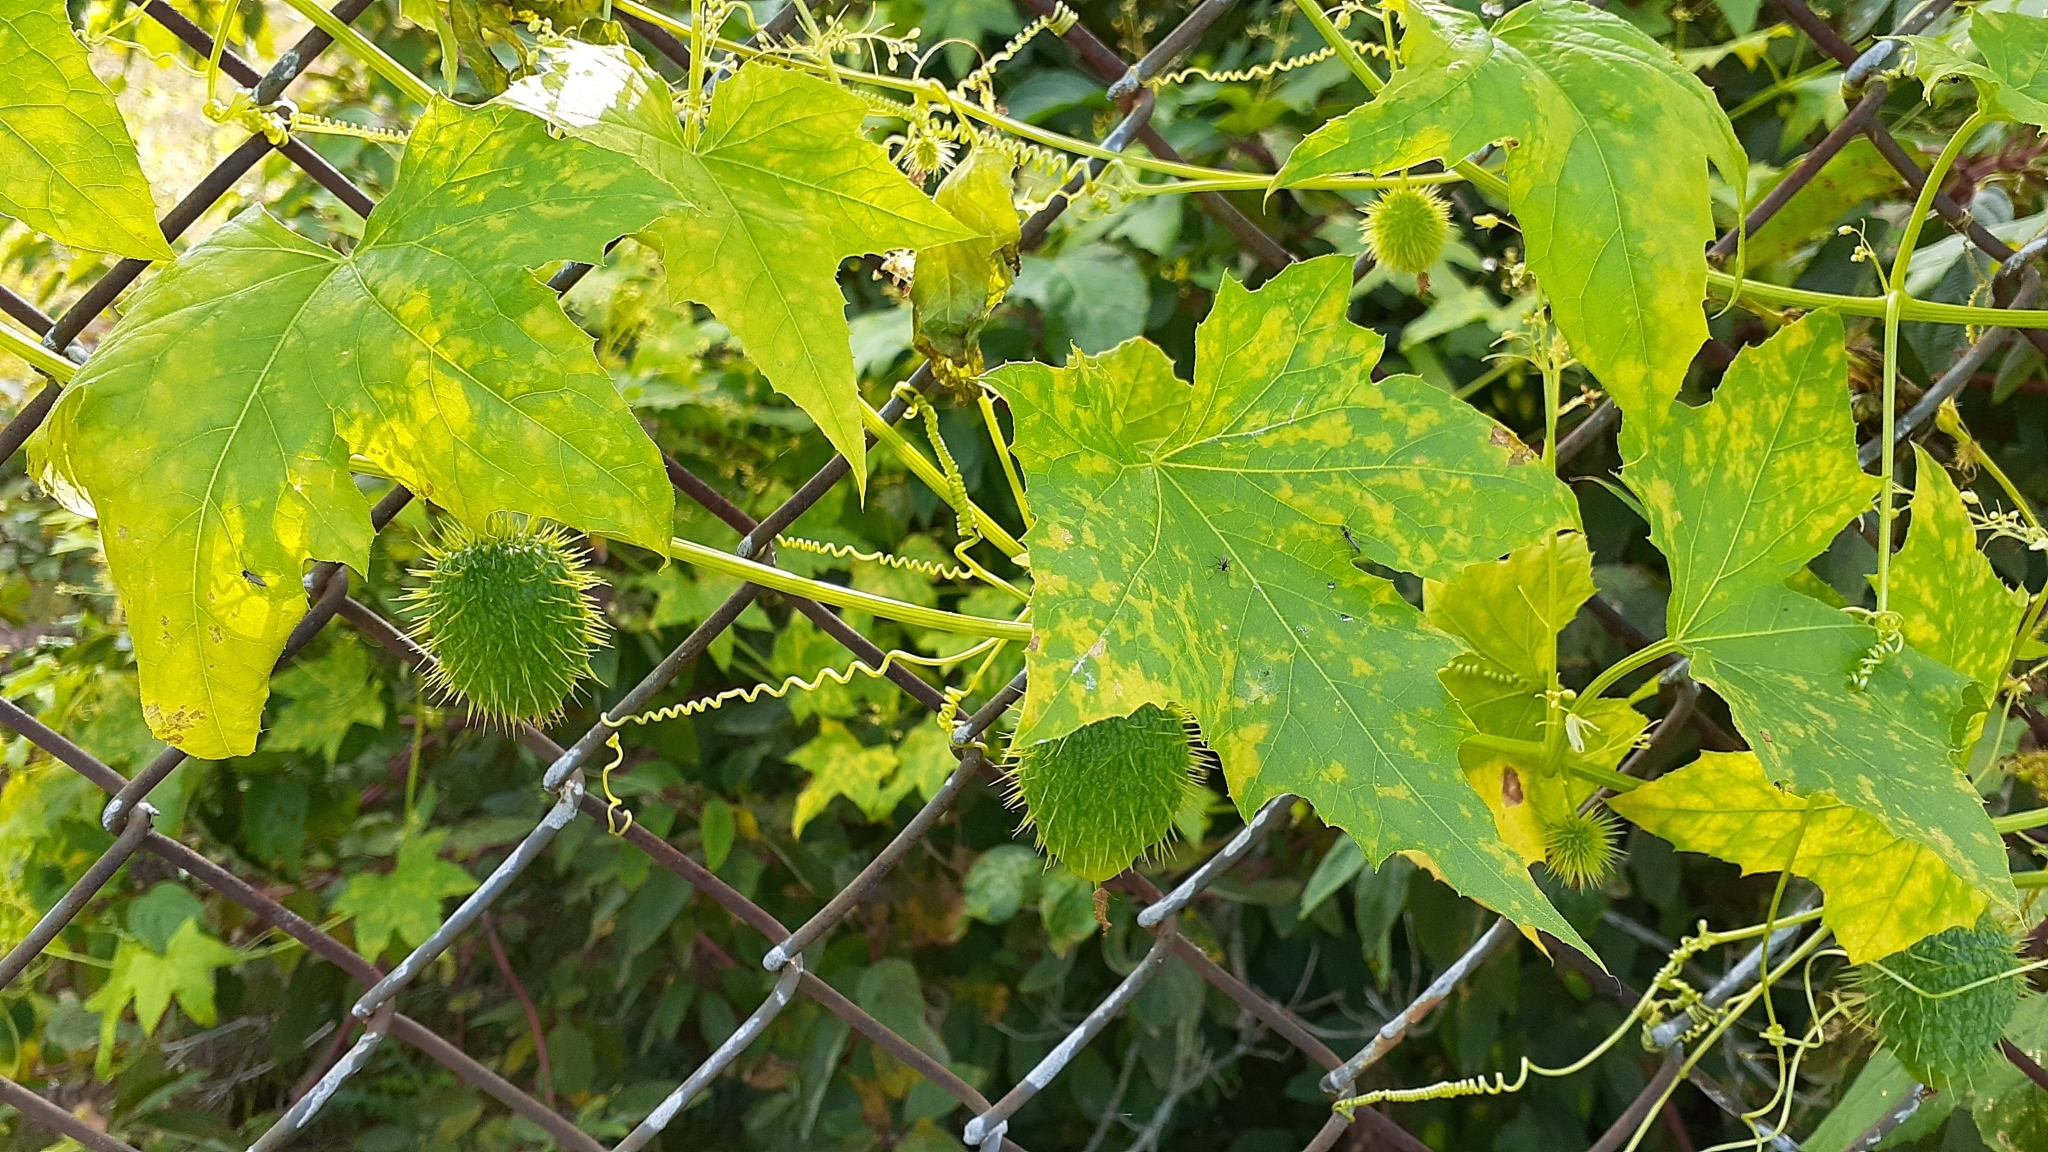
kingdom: Plantae
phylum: Tracheophyta
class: Magnoliopsida
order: Cucurbitales
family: Cucurbitaceae
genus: Echinocystis
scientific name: Echinocystis lobata
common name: Wild cucumber
